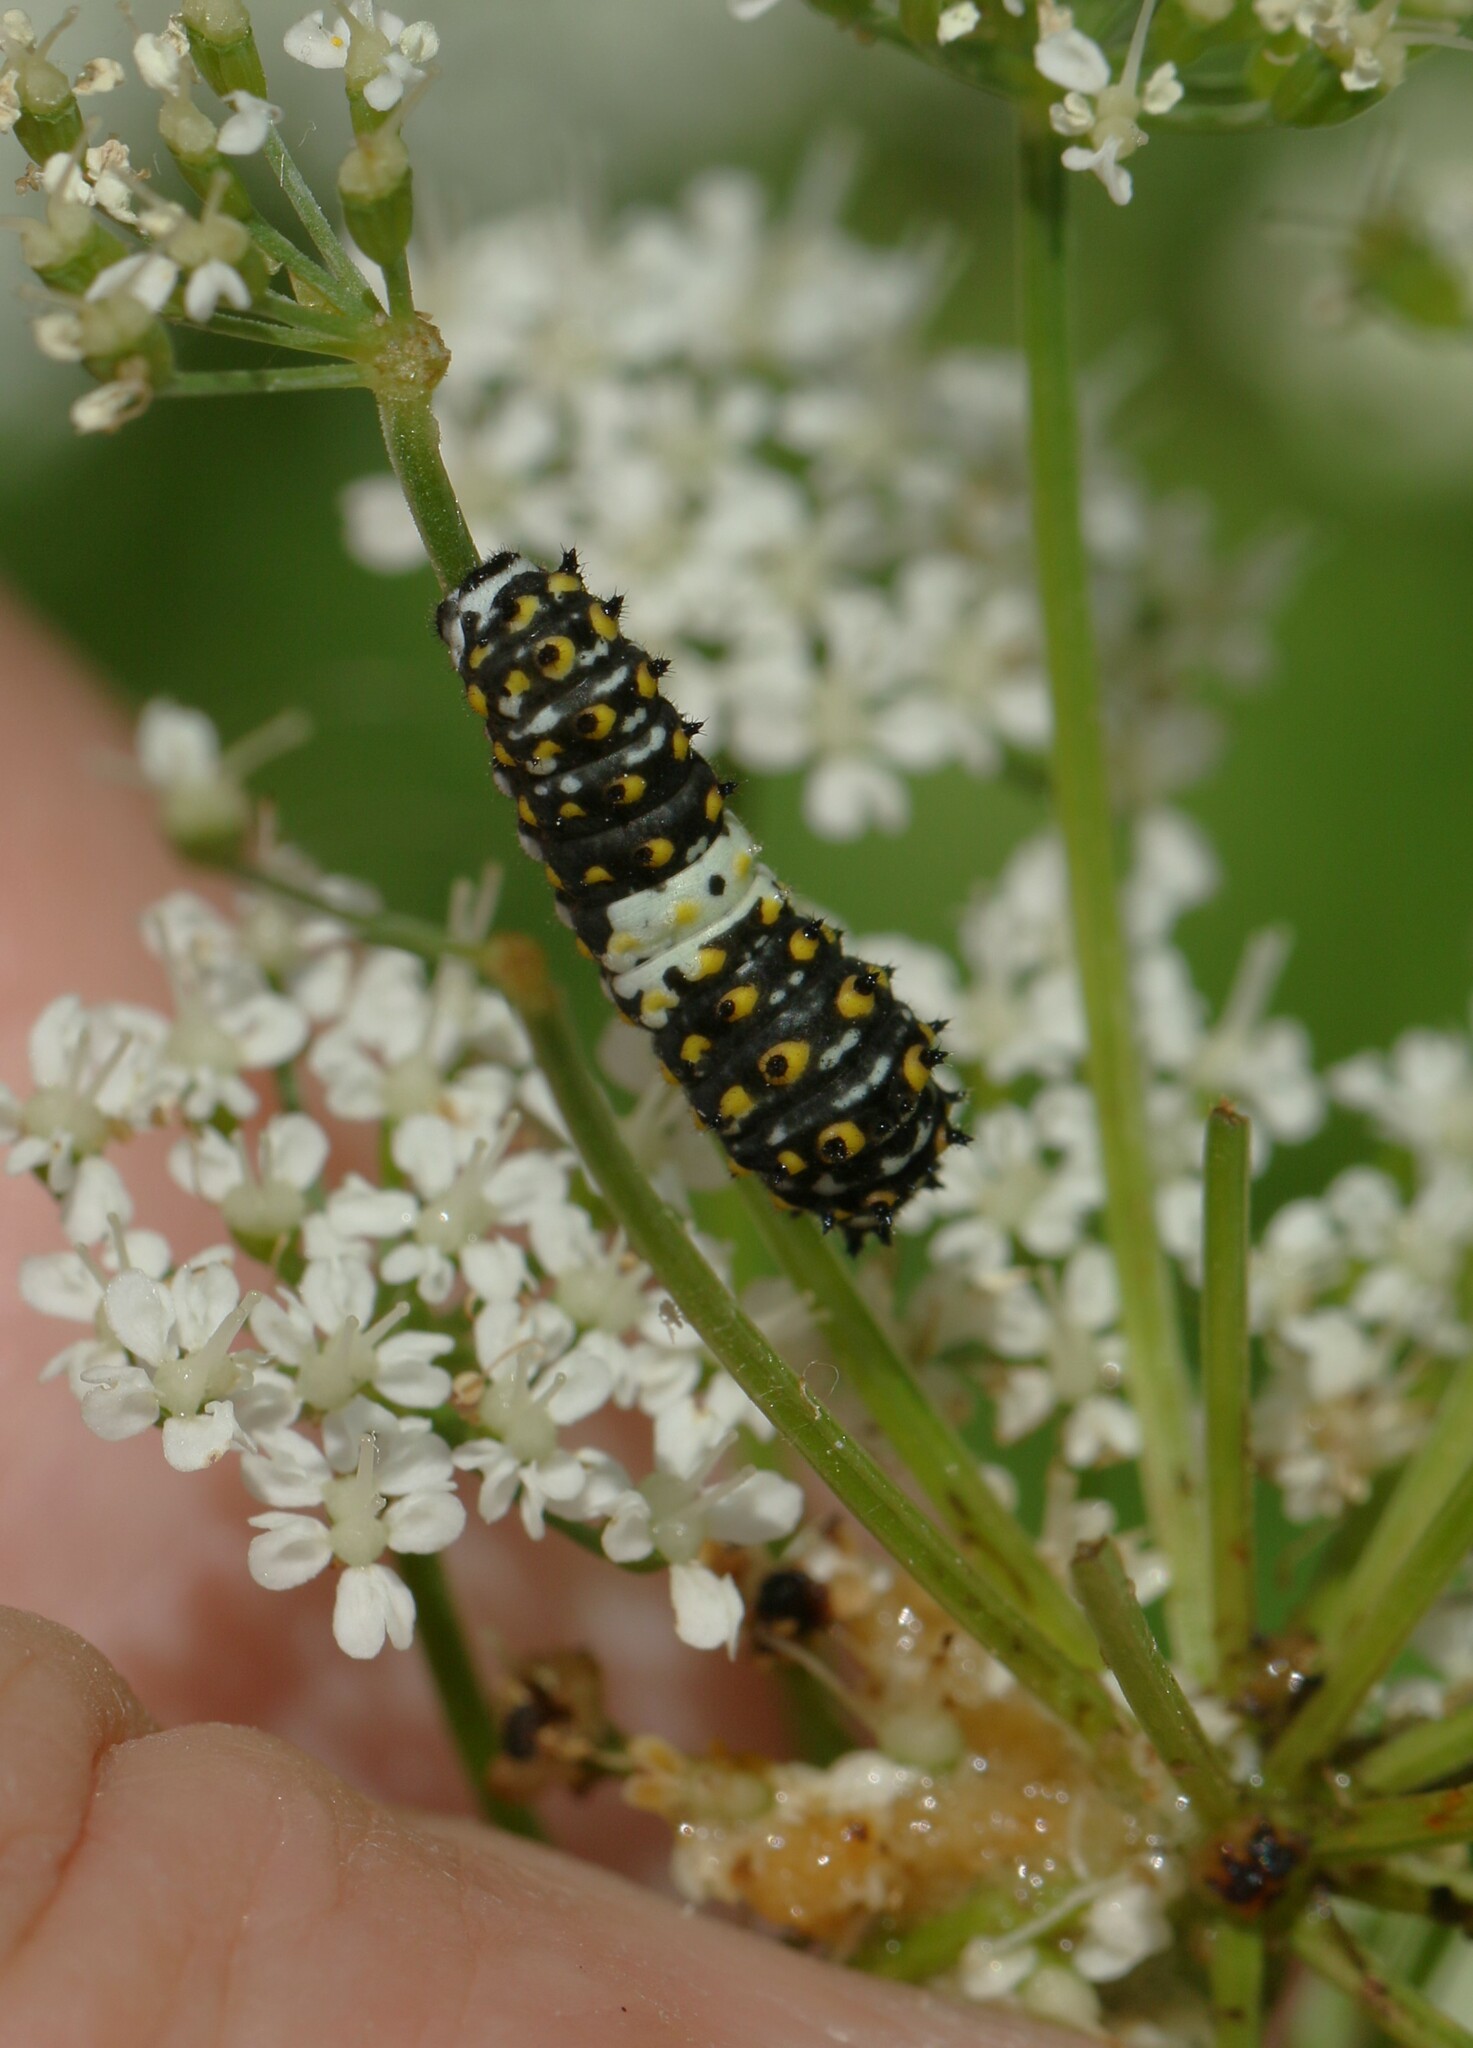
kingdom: Animalia
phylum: Arthropoda
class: Insecta
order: Lepidoptera
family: Papilionidae
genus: Papilio
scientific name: Papilio polyxenes
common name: Black swallowtail
